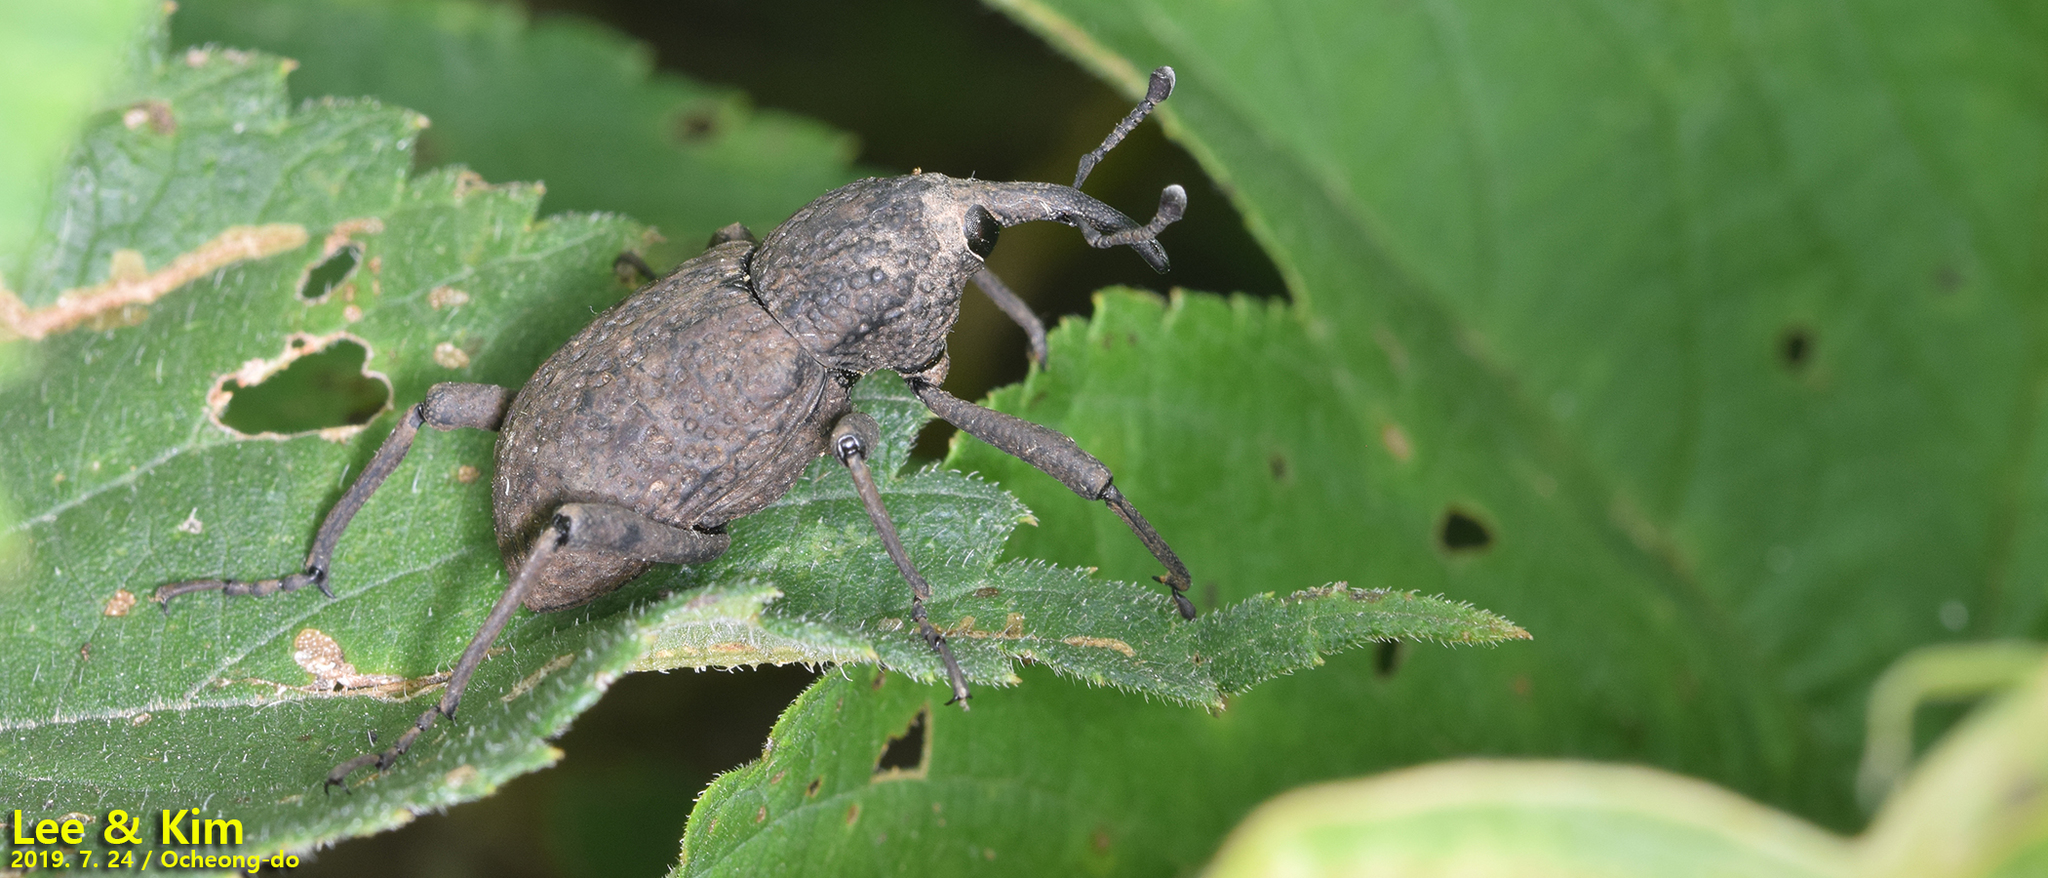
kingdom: Animalia
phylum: Arthropoda
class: Insecta
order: Coleoptera
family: Dryophthoridae
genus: Sipalinus
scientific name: Sipalinus gigas
